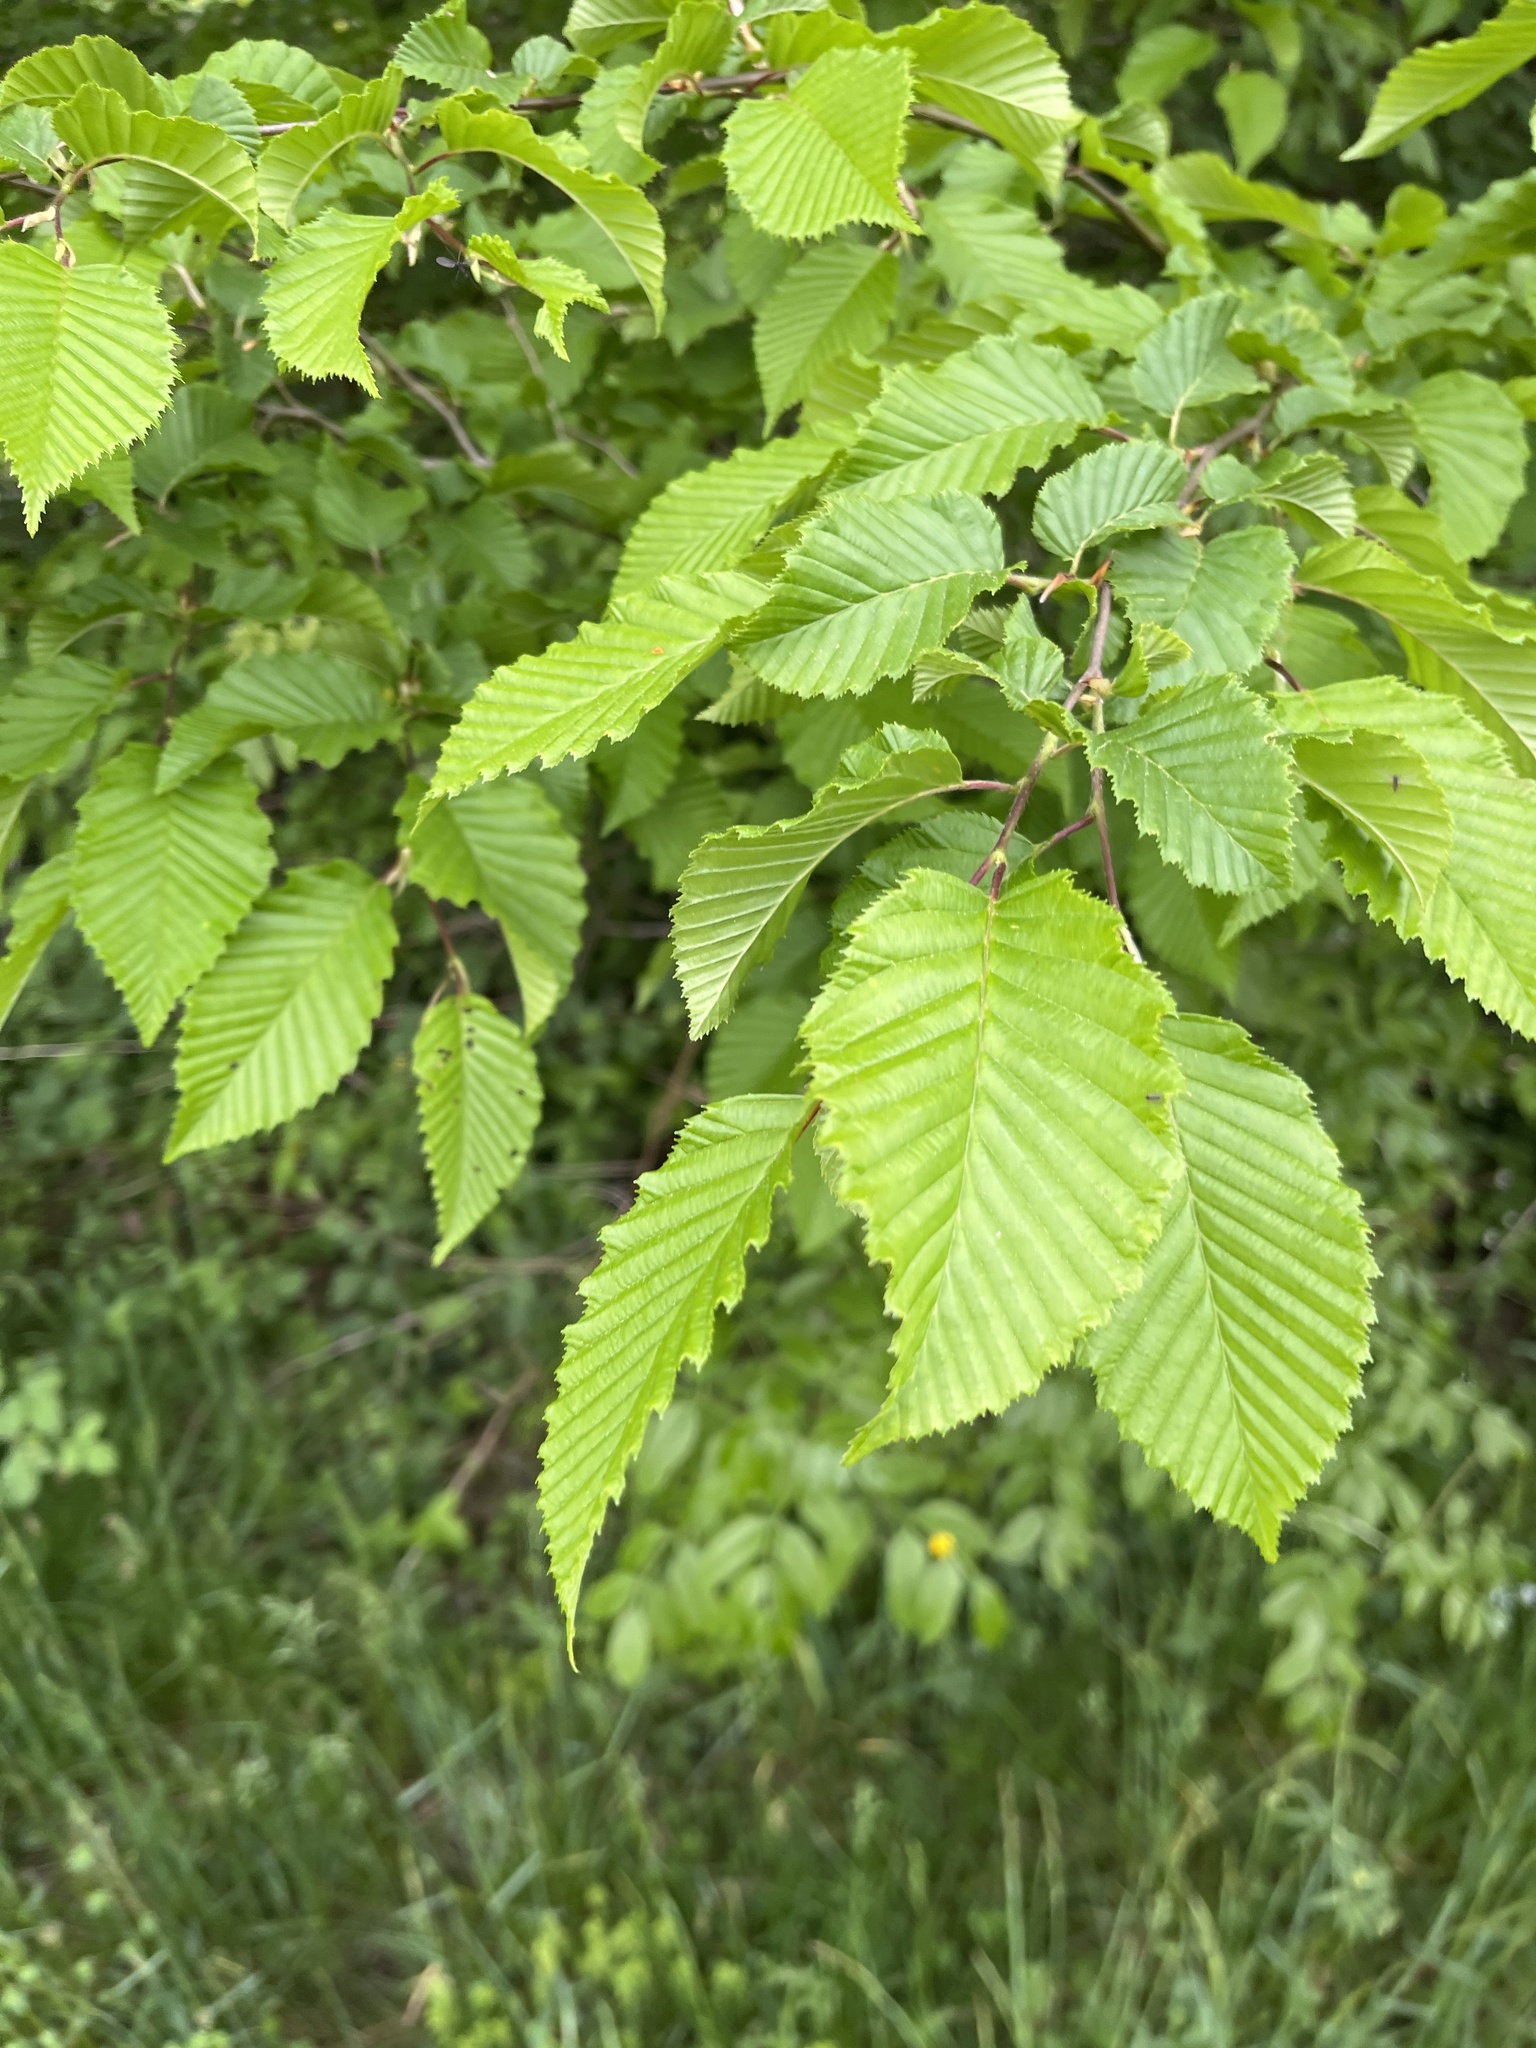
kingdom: Plantae
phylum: Tracheophyta
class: Magnoliopsida
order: Fagales
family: Betulaceae
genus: Ostrya
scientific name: Ostrya carpinifolia
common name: European hop-hornbeam
